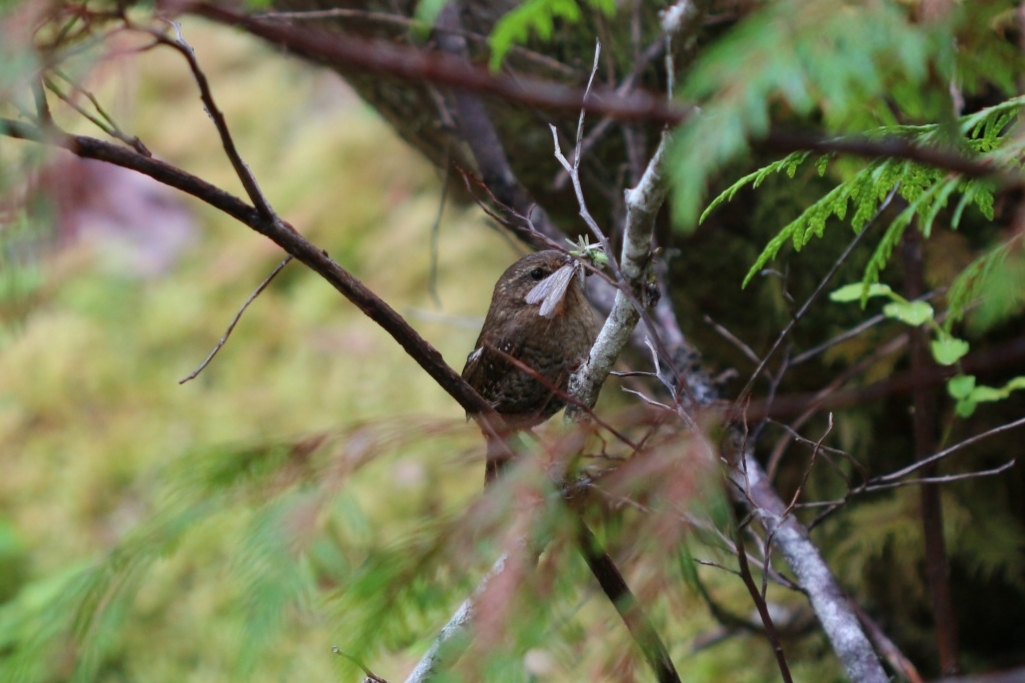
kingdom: Animalia
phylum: Chordata
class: Aves
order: Passeriformes
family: Troglodytidae
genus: Troglodytes
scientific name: Troglodytes pacificus
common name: Pacific wren
